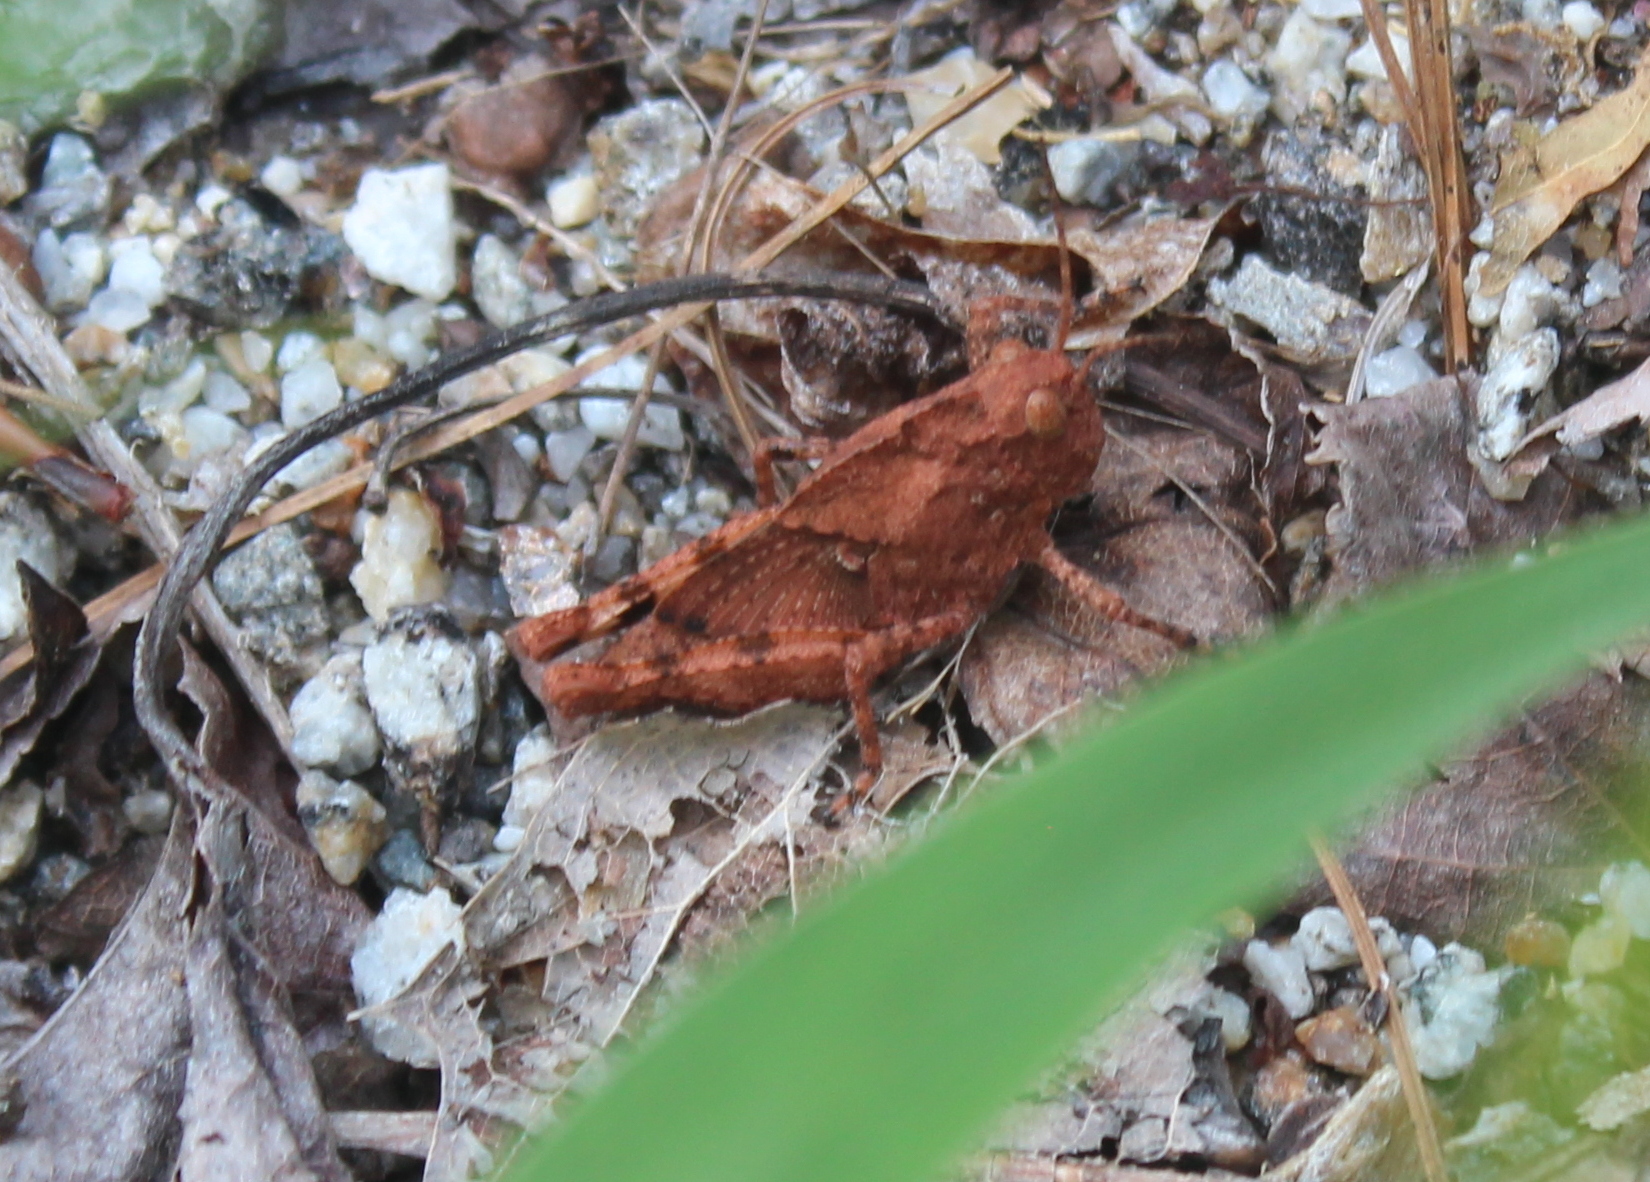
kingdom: Animalia
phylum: Arthropoda
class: Insecta
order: Orthoptera
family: Acrididae
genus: Dissosteira
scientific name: Dissosteira carolina
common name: Carolina grasshopper
